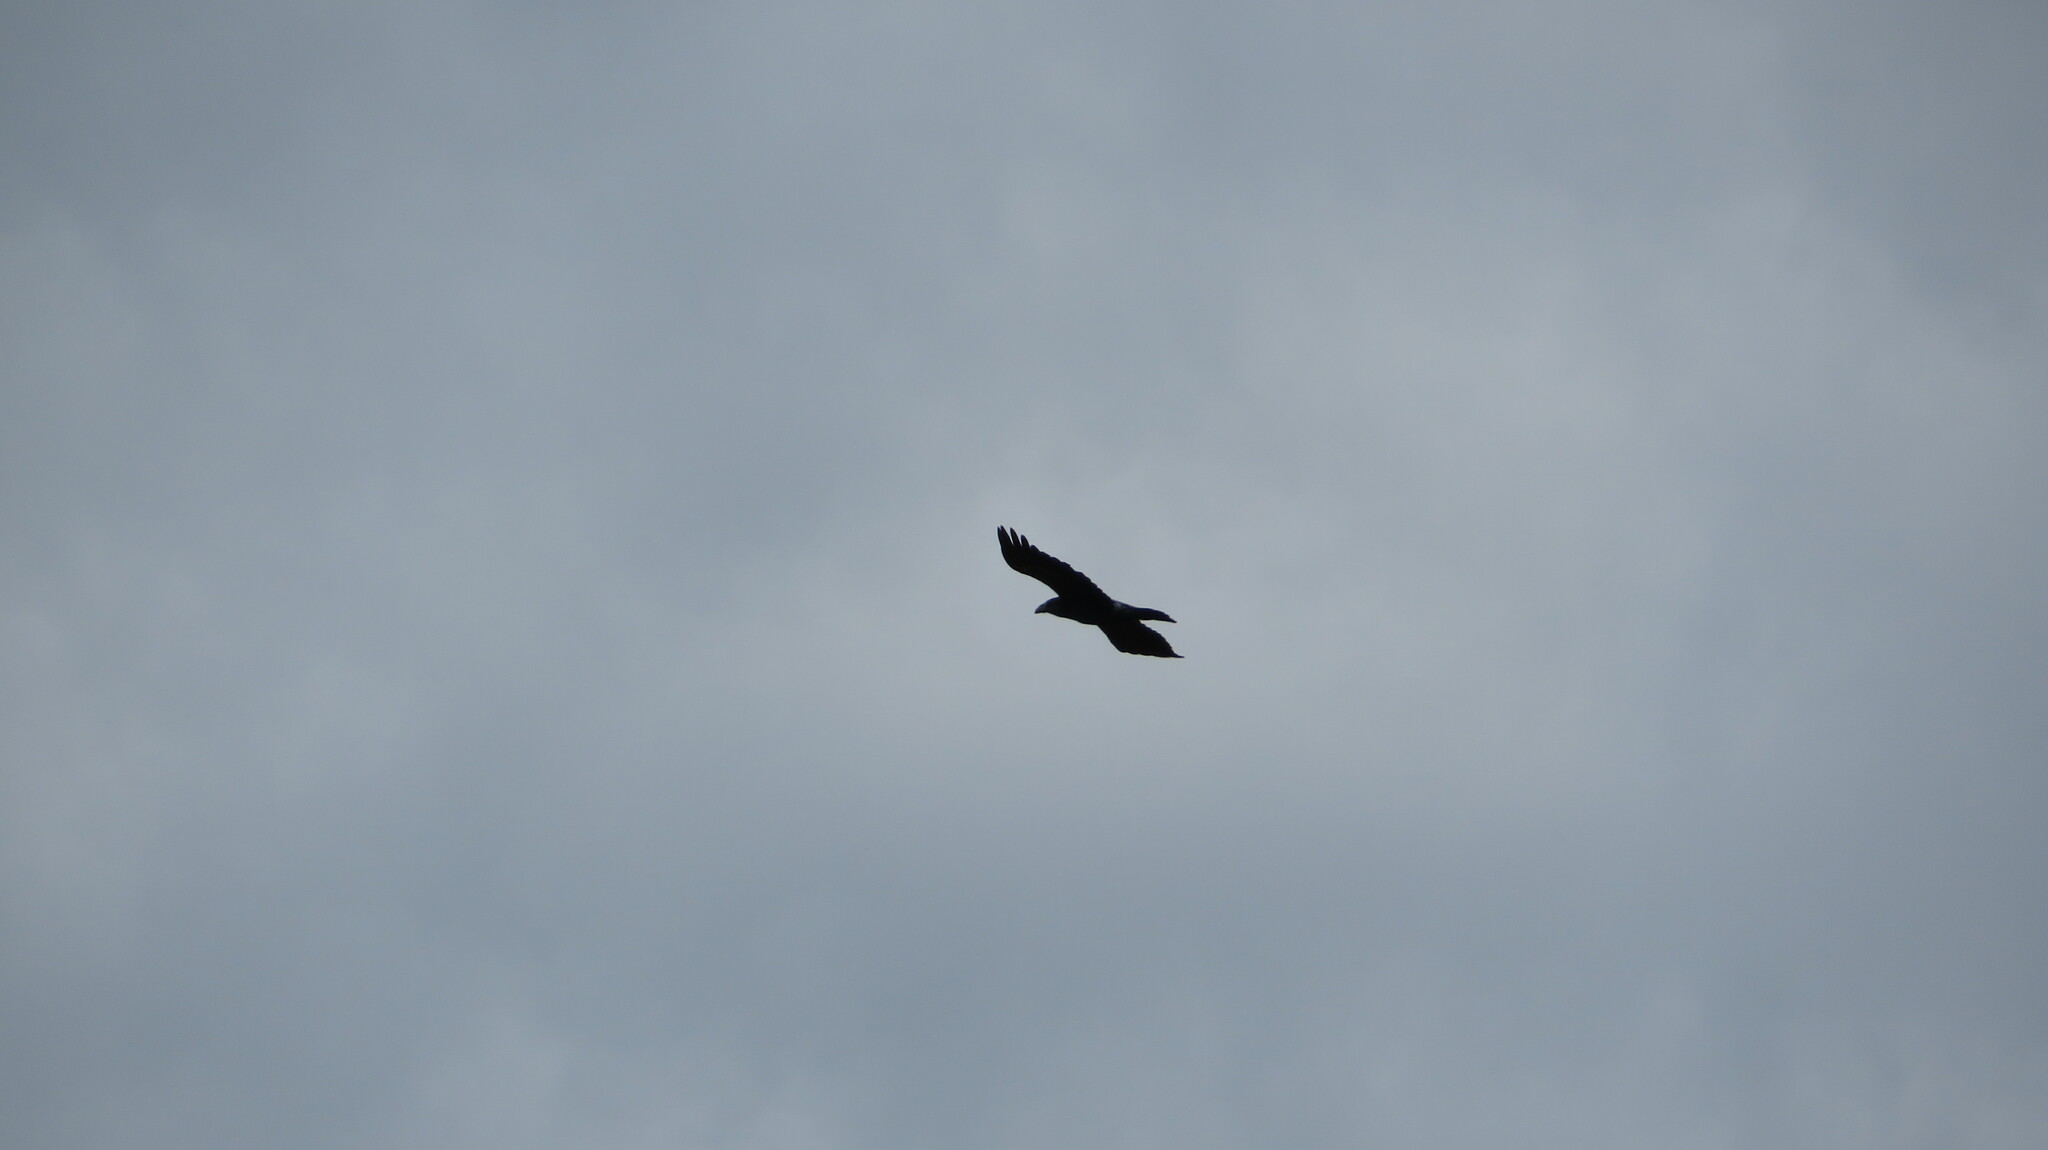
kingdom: Animalia
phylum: Chordata
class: Aves
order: Passeriformes
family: Corvidae
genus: Corvus
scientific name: Corvus corax
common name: Common raven
